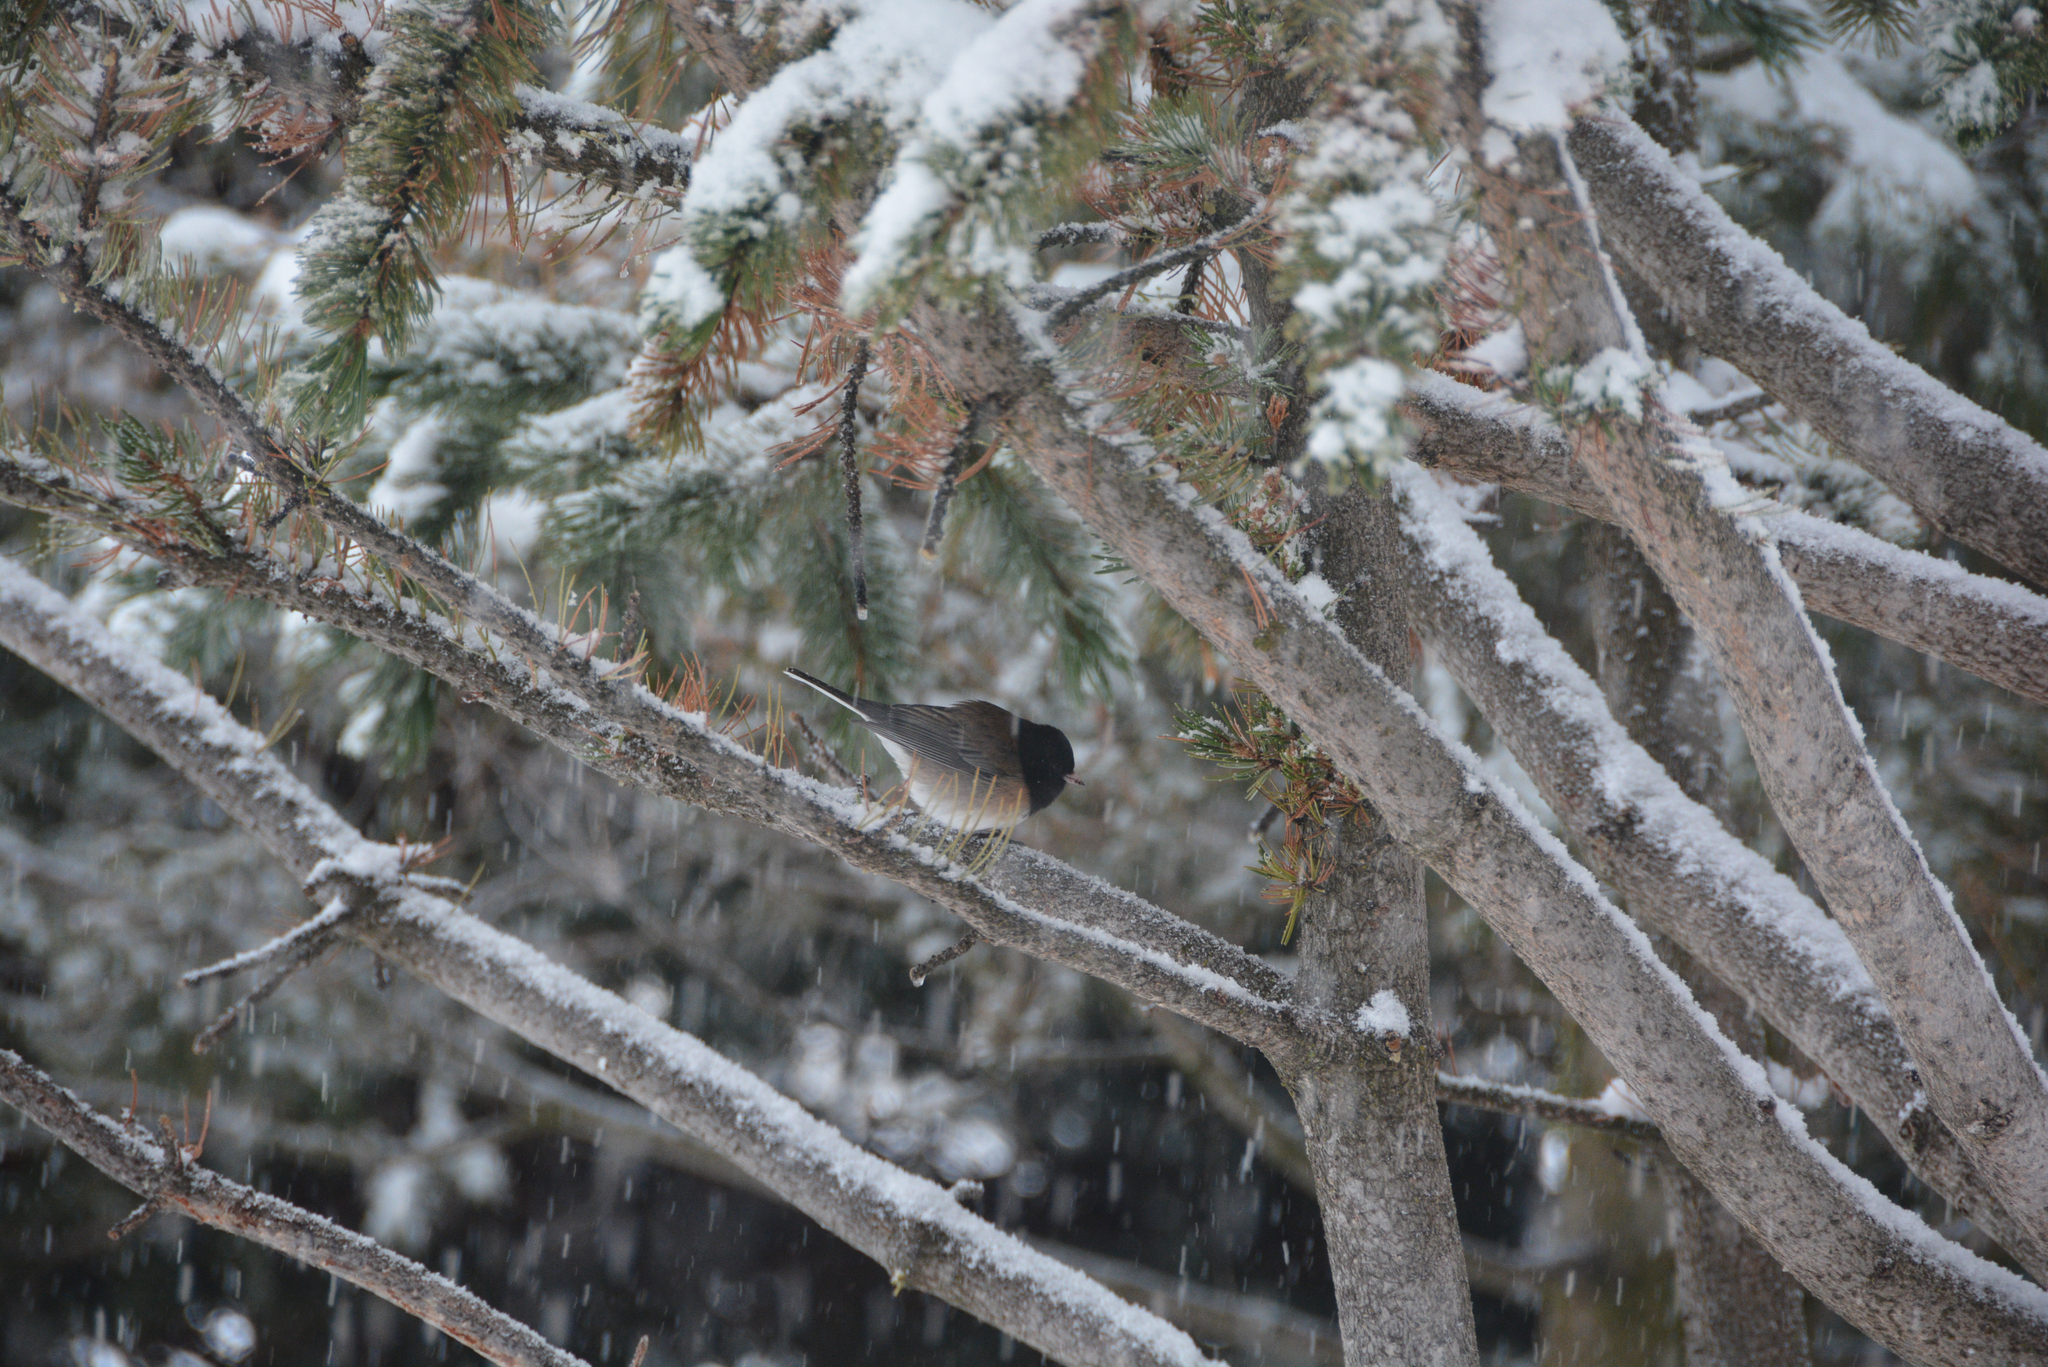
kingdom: Animalia
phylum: Chordata
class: Aves
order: Passeriformes
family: Passerellidae
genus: Junco
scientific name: Junco hyemalis
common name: Dark-eyed junco
